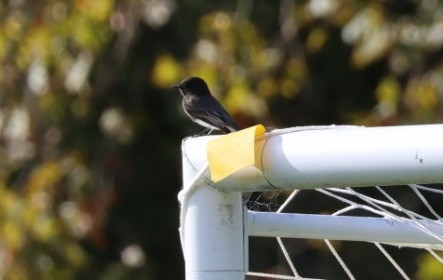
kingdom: Animalia
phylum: Chordata
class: Aves
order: Passeriformes
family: Tyrannidae
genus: Sayornis
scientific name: Sayornis nigricans
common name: Black phoebe
